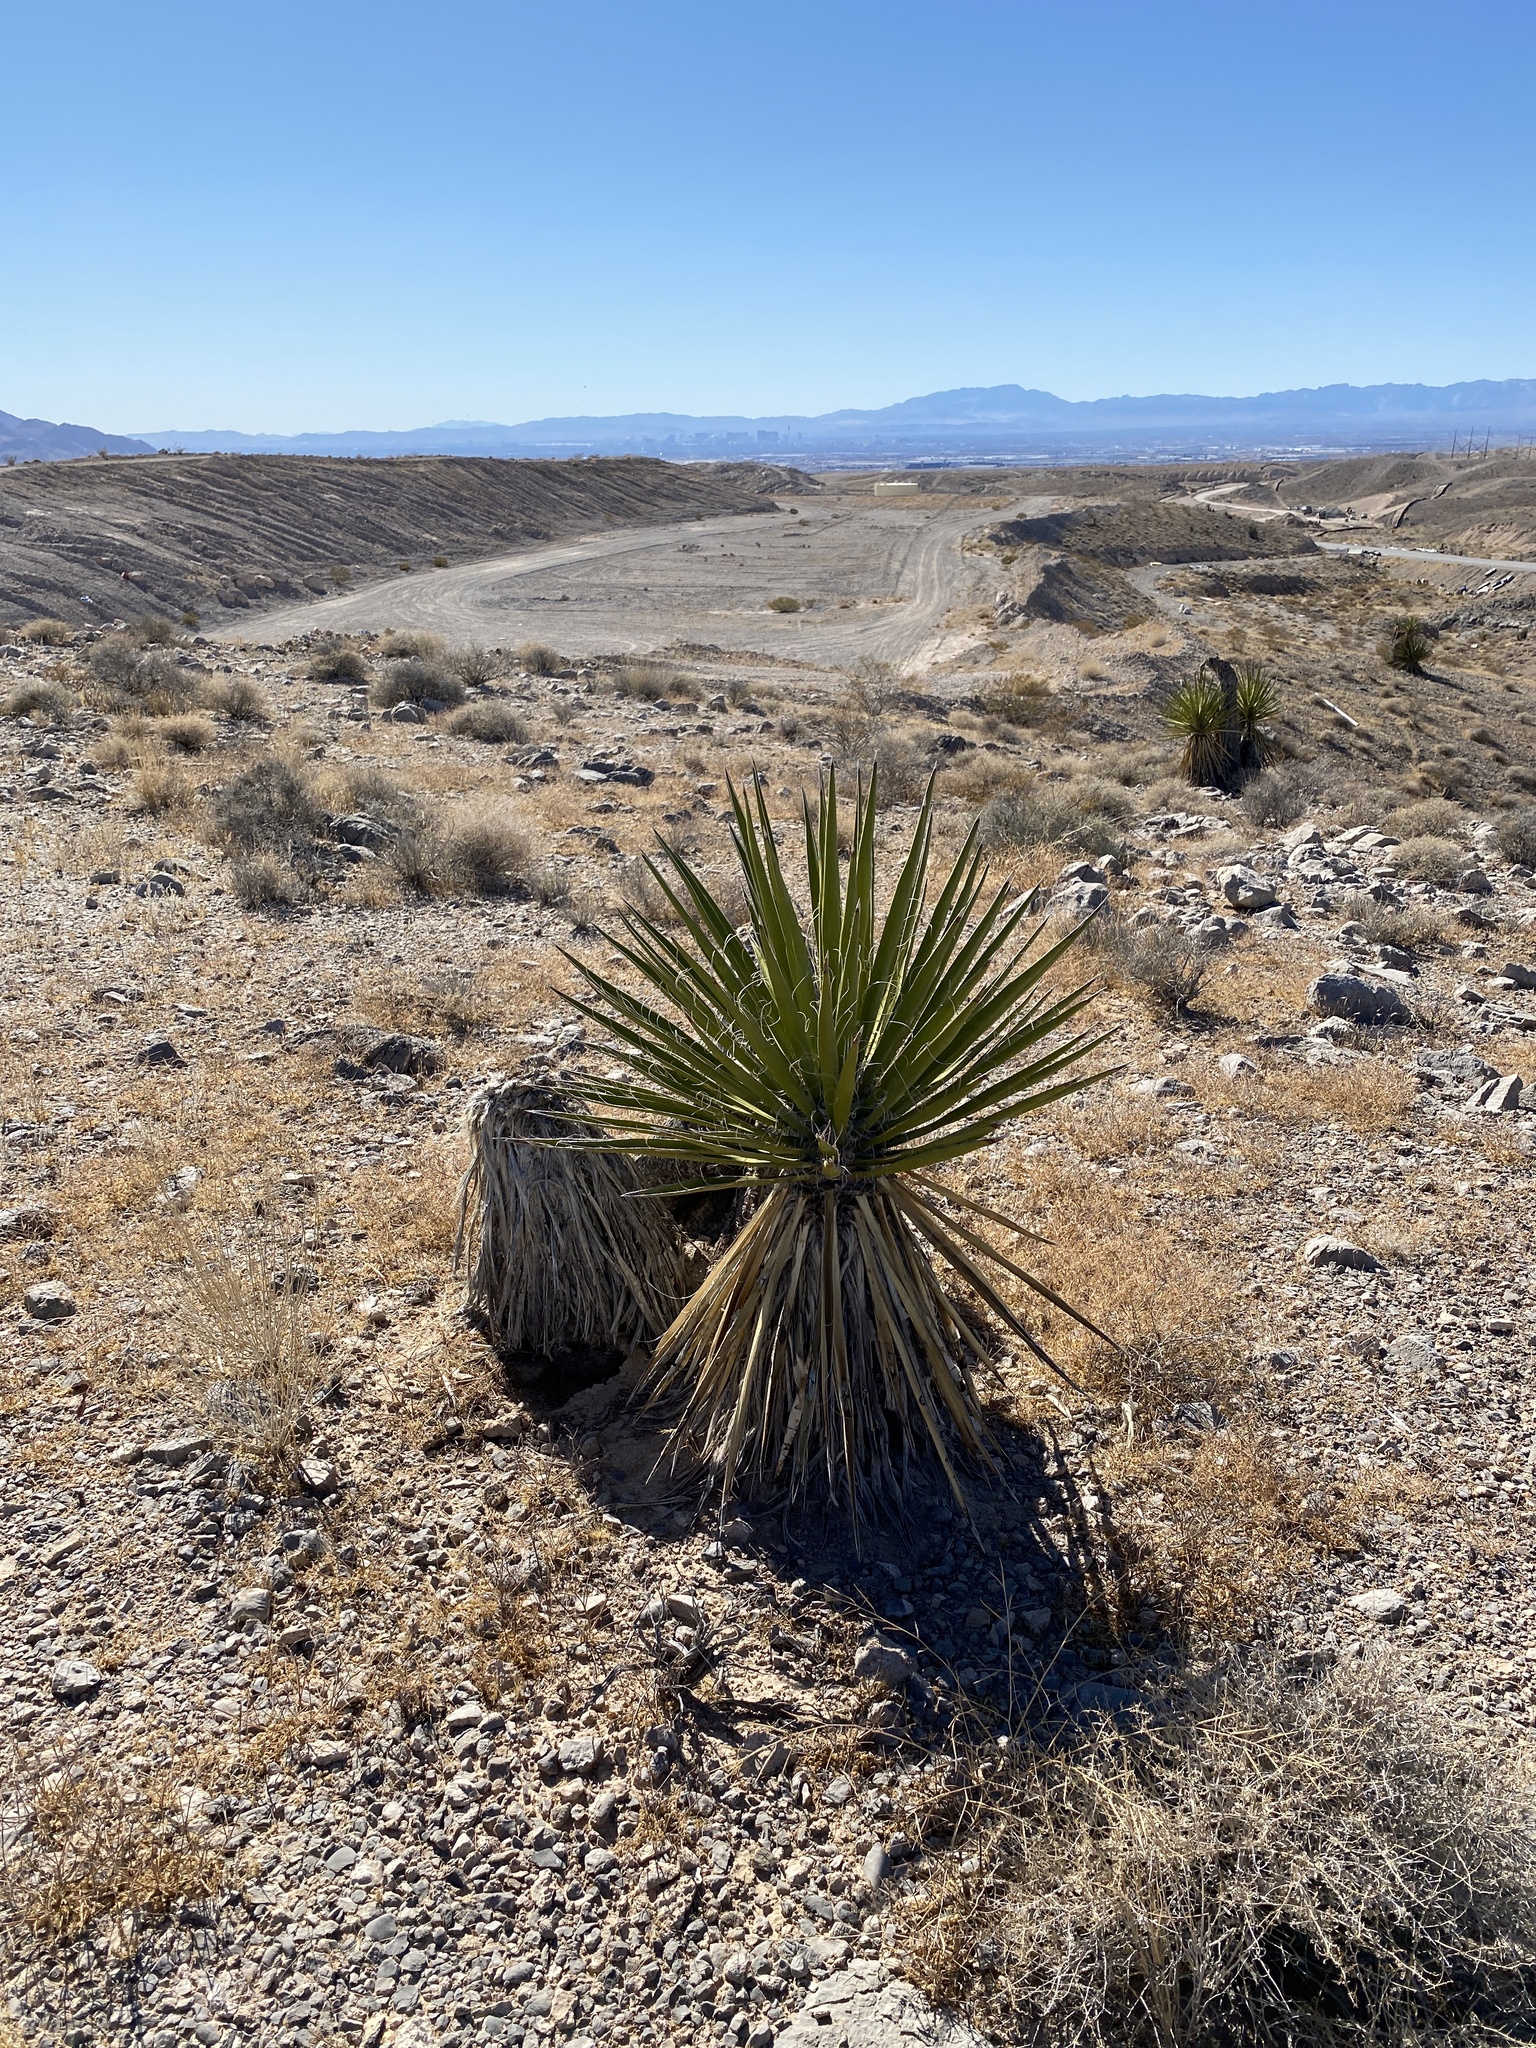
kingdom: Plantae
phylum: Tracheophyta
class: Liliopsida
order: Asparagales
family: Asparagaceae
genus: Yucca
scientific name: Yucca schidigera
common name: Mojave yucca
